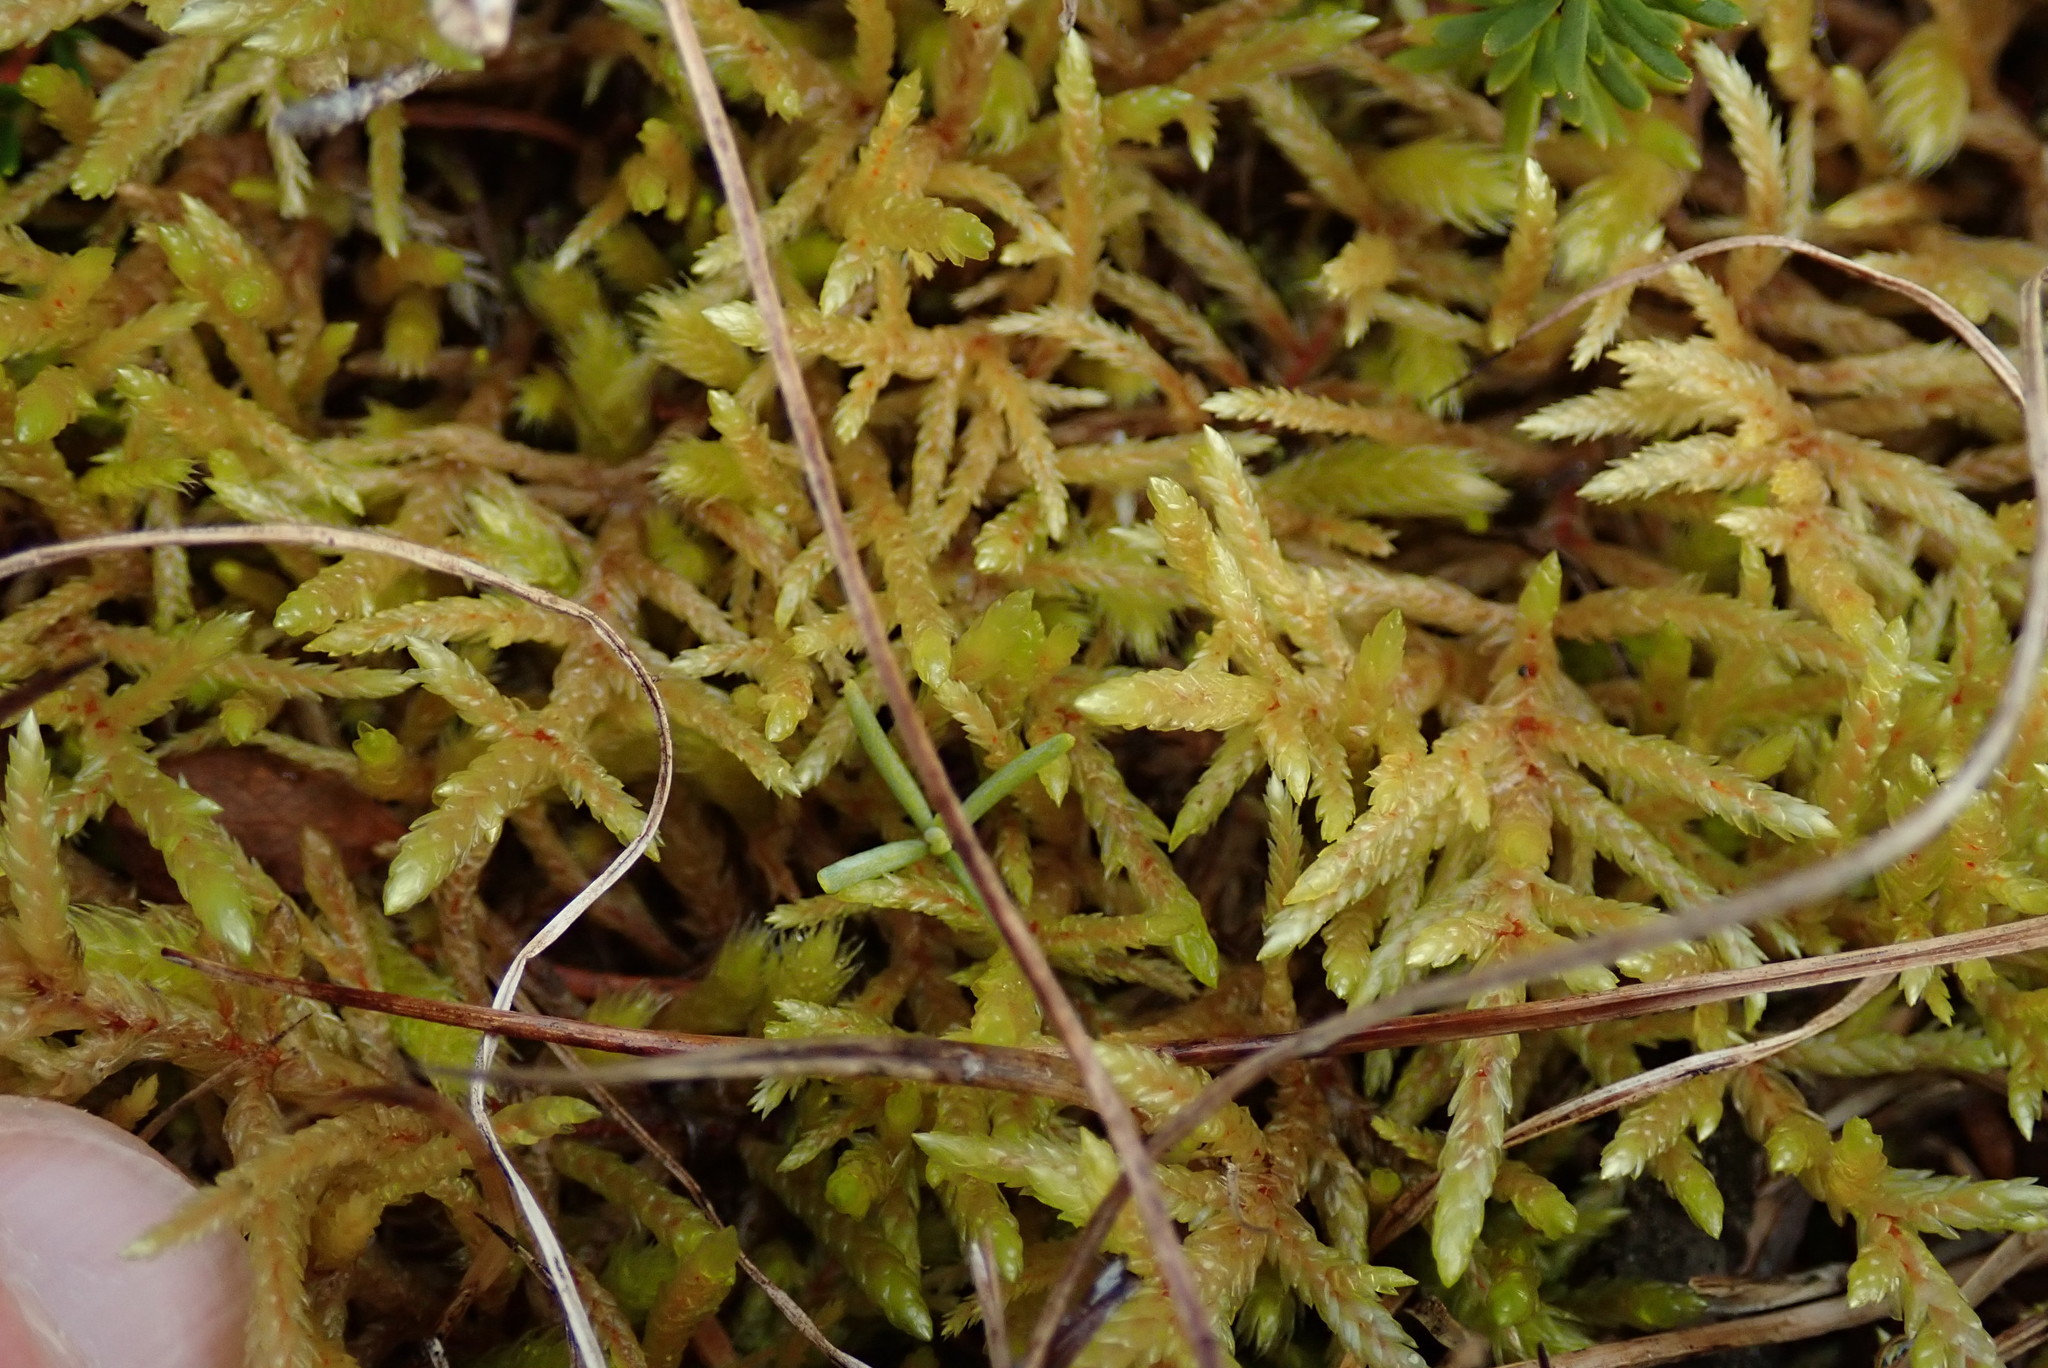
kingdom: Plantae
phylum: Bryophyta
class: Bryopsida
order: Hypnales
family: Hylocomiaceae
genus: Pleurozium
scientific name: Pleurozium schreberi
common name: Red-stemmed feather moss
